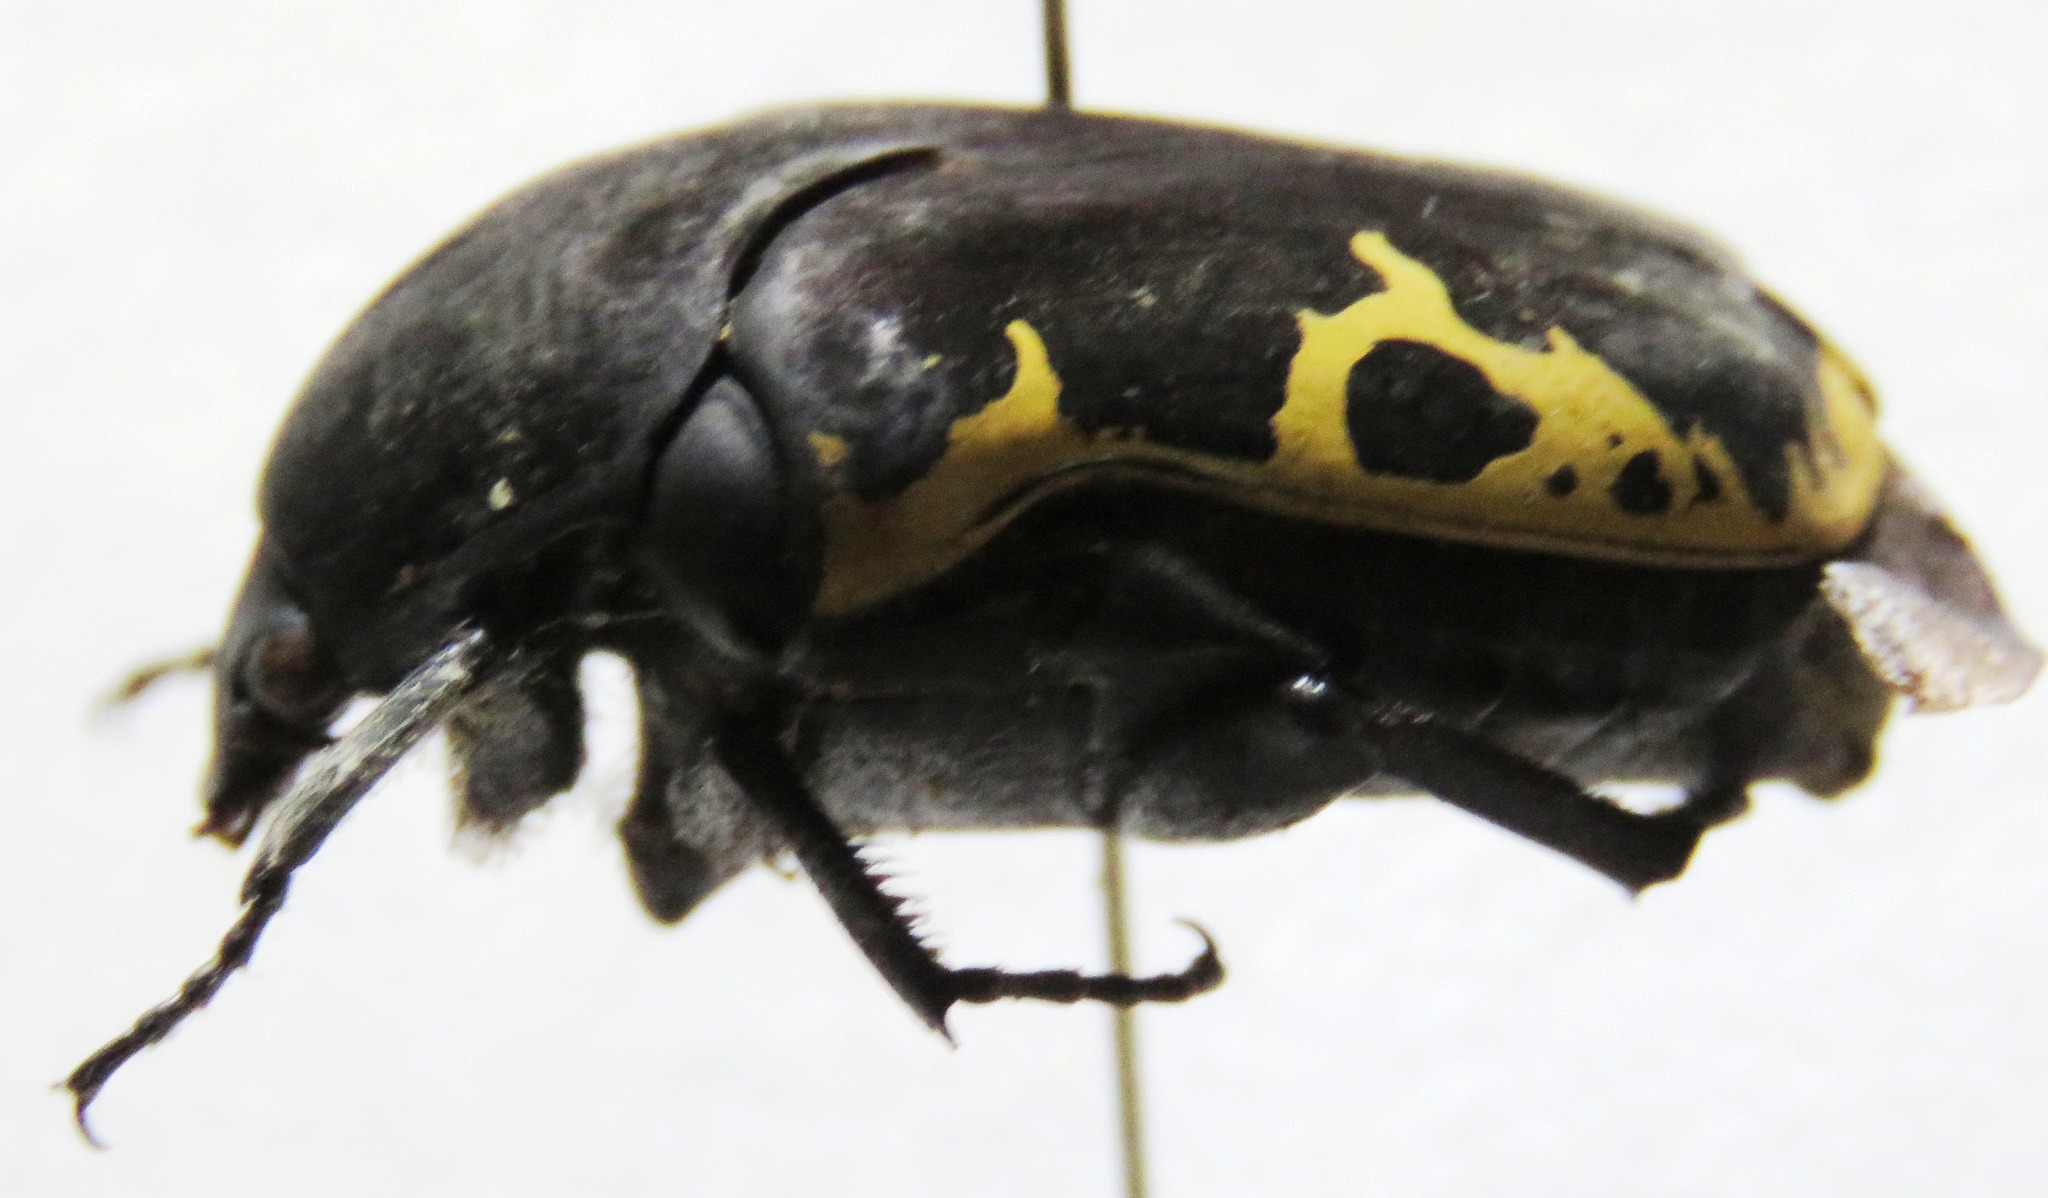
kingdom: Animalia
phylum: Arthropoda
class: Insecta
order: Coleoptera
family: Scarabaeidae
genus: Gymnetis
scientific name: Gymnetis ramulosa
